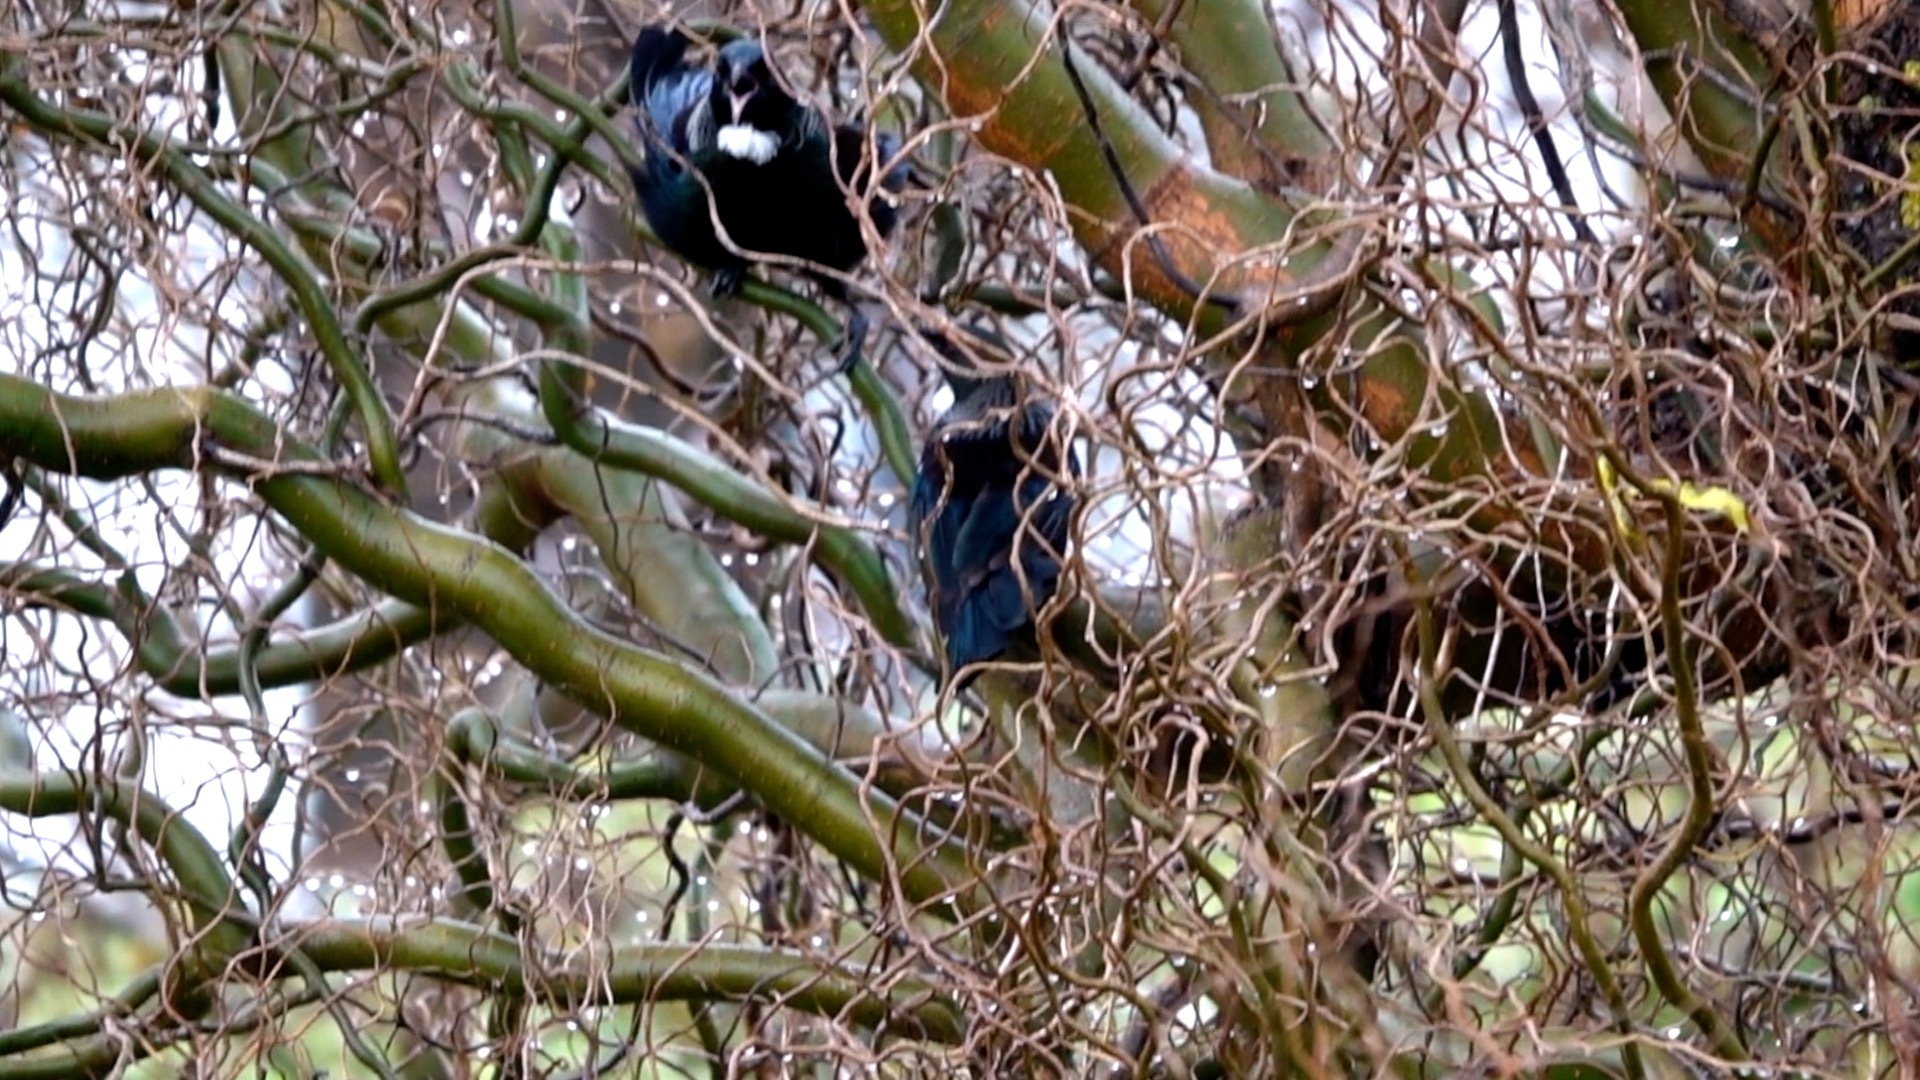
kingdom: Animalia
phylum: Chordata
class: Aves
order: Passeriformes
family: Meliphagidae
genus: Prosthemadera
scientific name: Prosthemadera novaeseelandiae
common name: Tui
